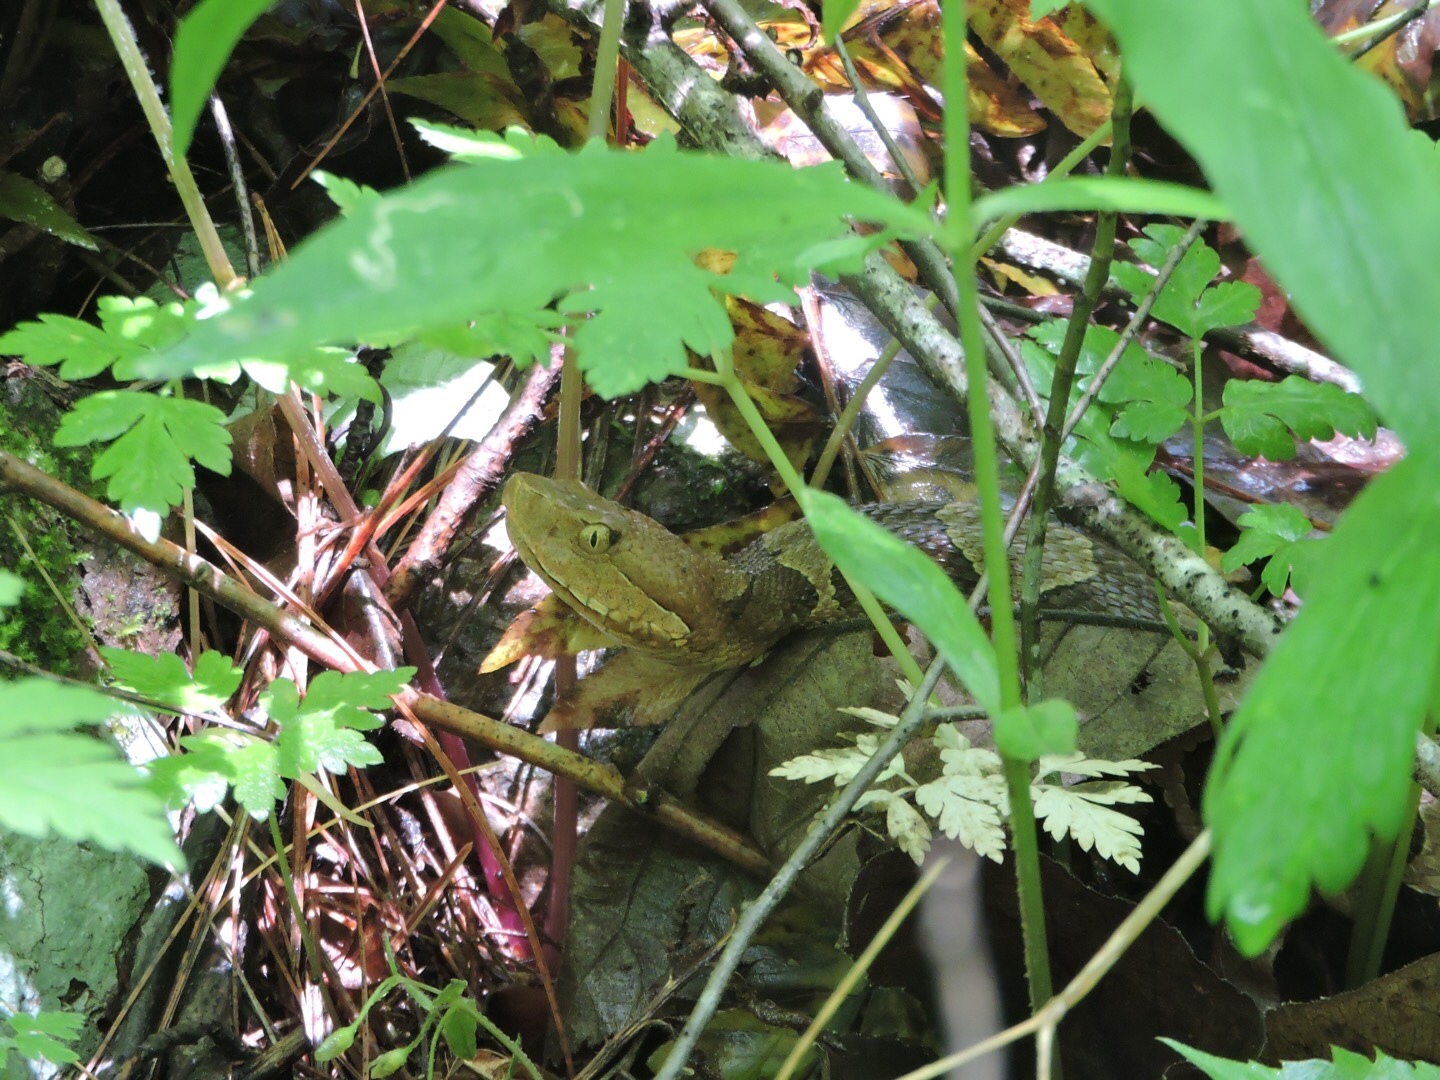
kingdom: Animalia
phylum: Chordata
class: Squamata
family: Viperidae
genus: Agkistrodon
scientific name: Agkistrodon contortrix
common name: Northern copperhead
